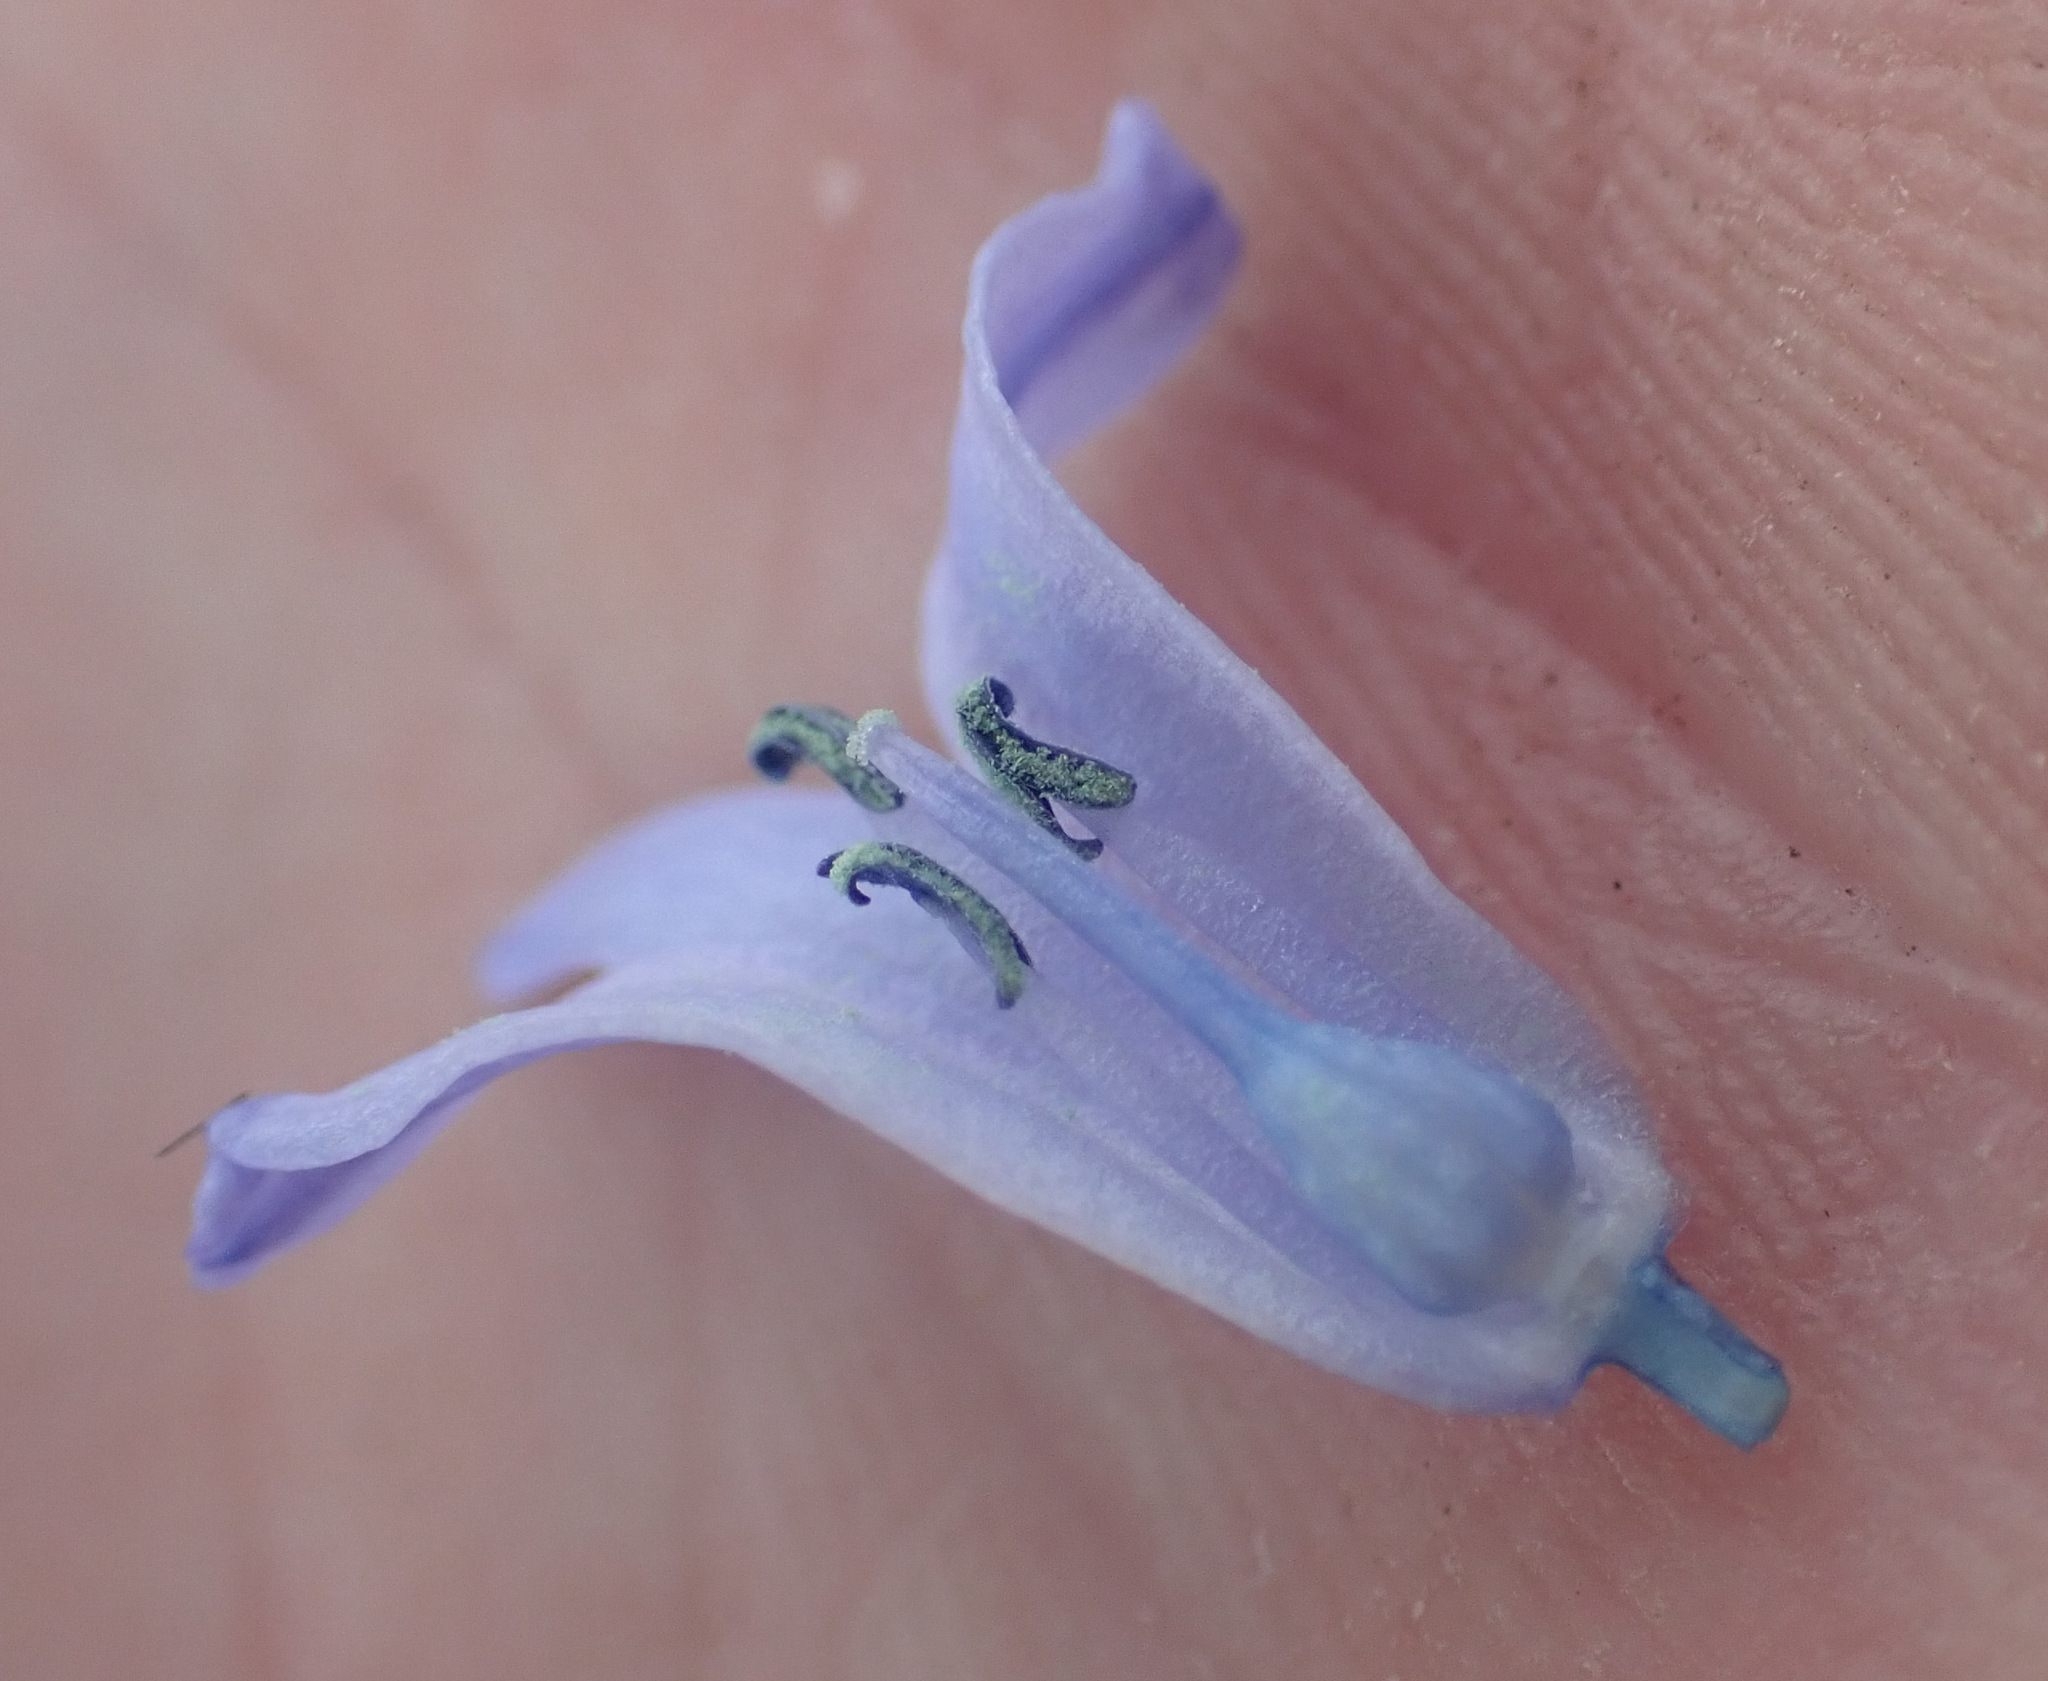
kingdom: Plantae
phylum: Tracheophyta
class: Liliopsida
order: Asparagales
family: Asparagaceae
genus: Hyacinthoides
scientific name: Hyacinthoides massartiana
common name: Hyacinthoides
